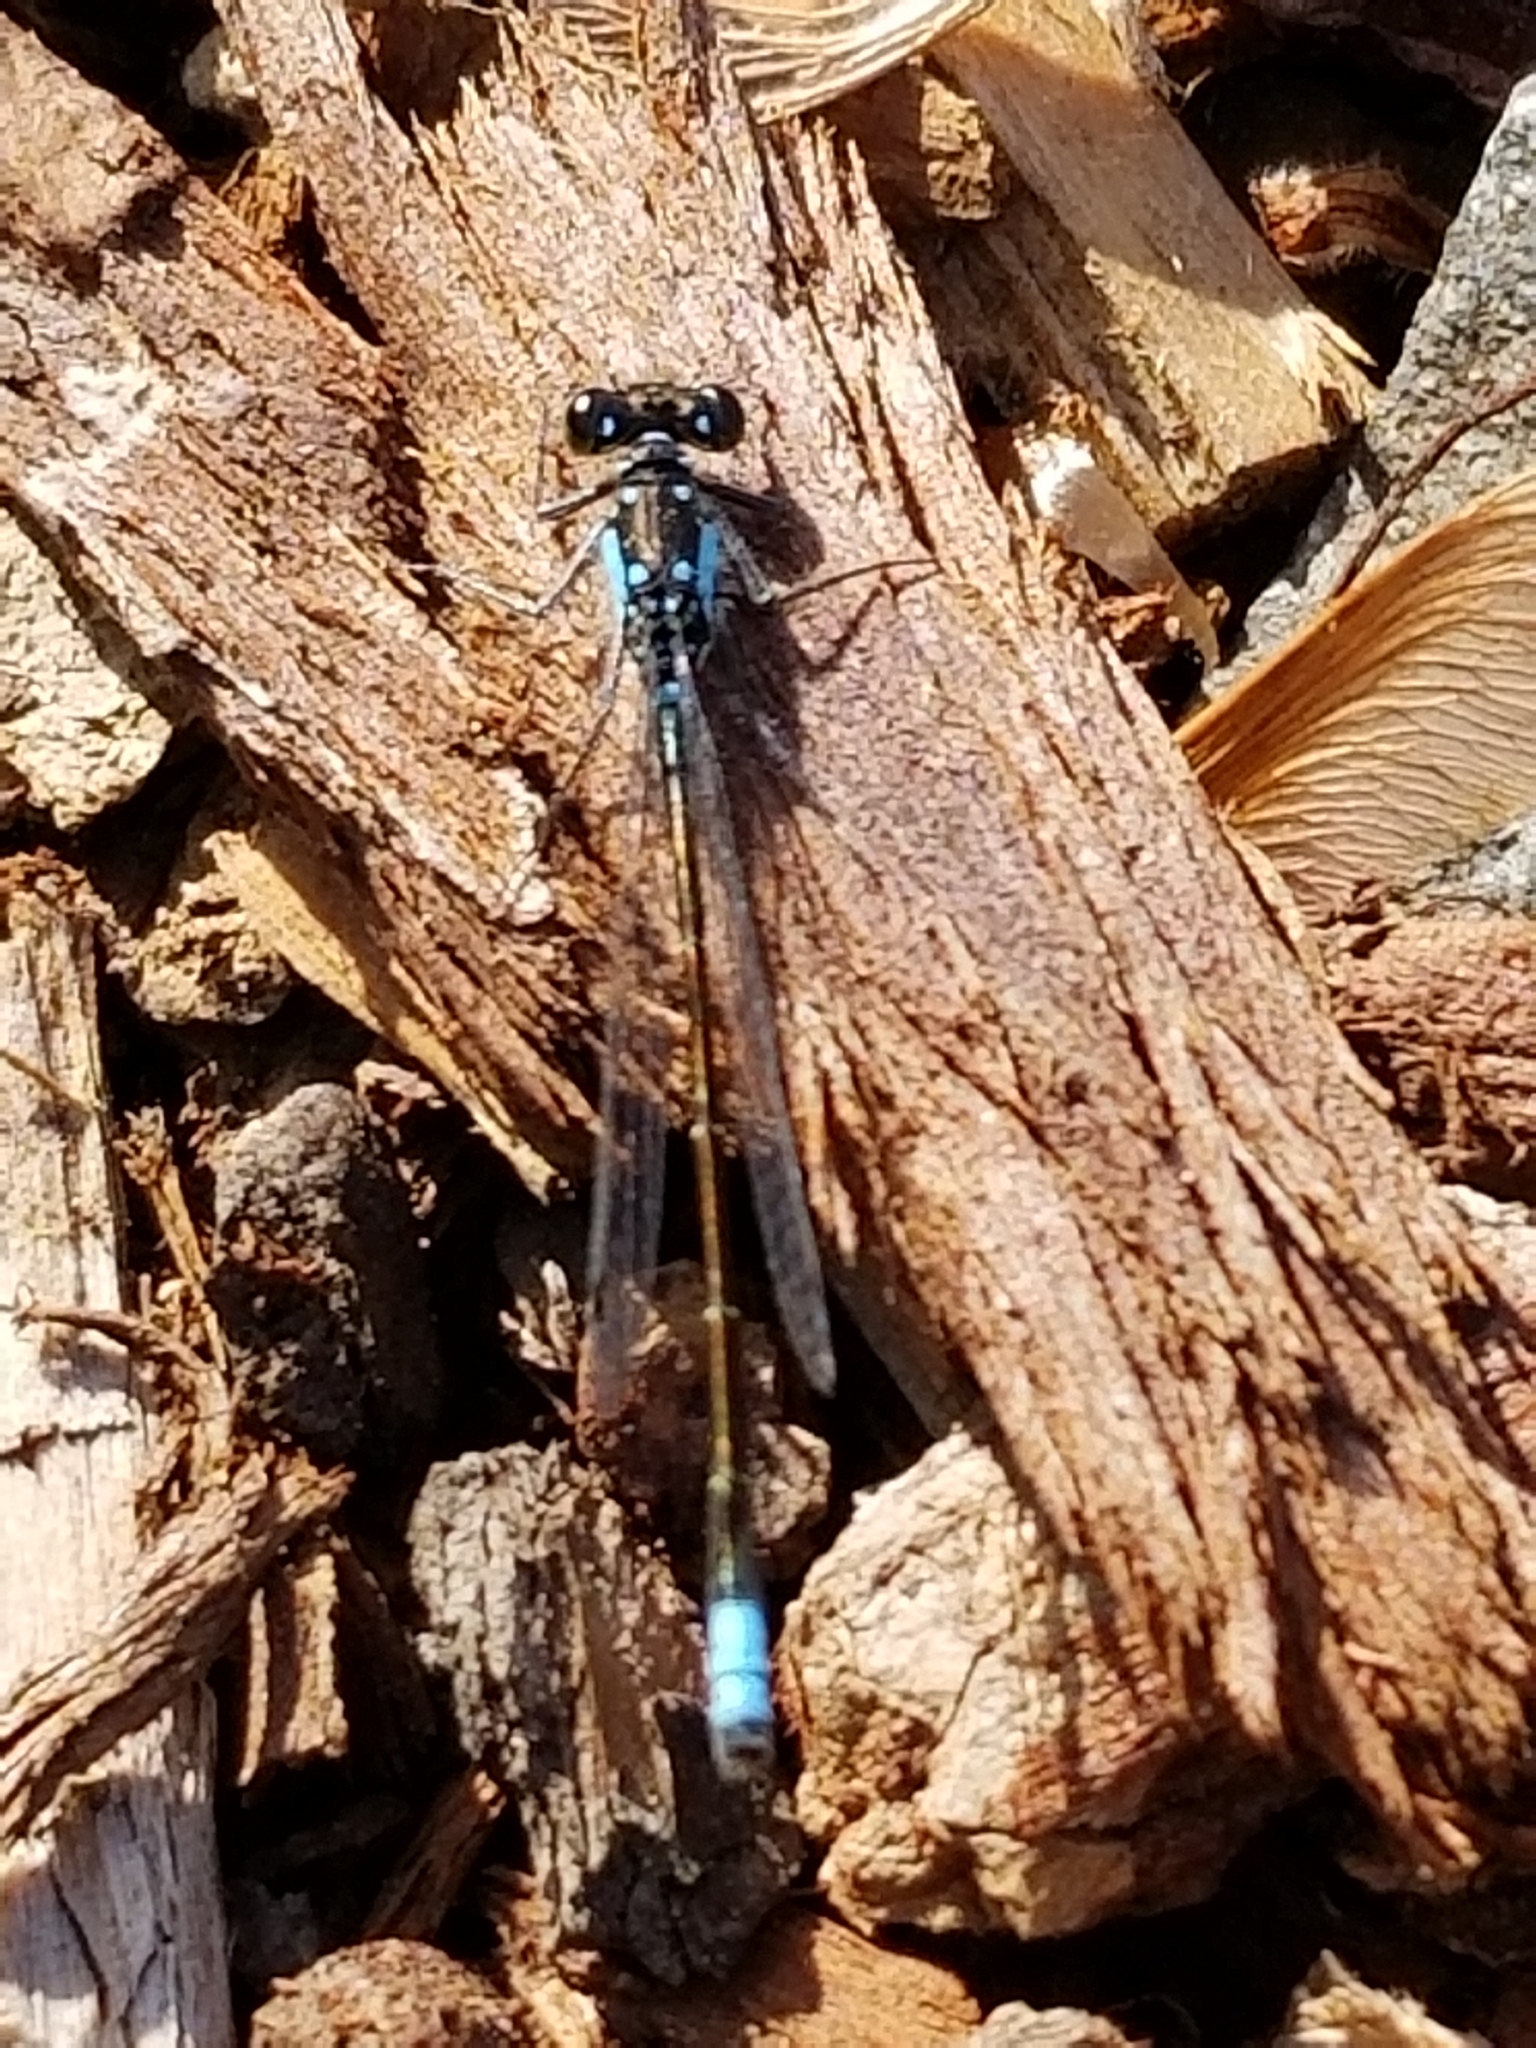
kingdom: Animalia
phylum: Arthropoda
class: Insecta
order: Odonata
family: Coenagrionidae
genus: Ischnura
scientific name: Ischnura cervula
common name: Pacific forktail
